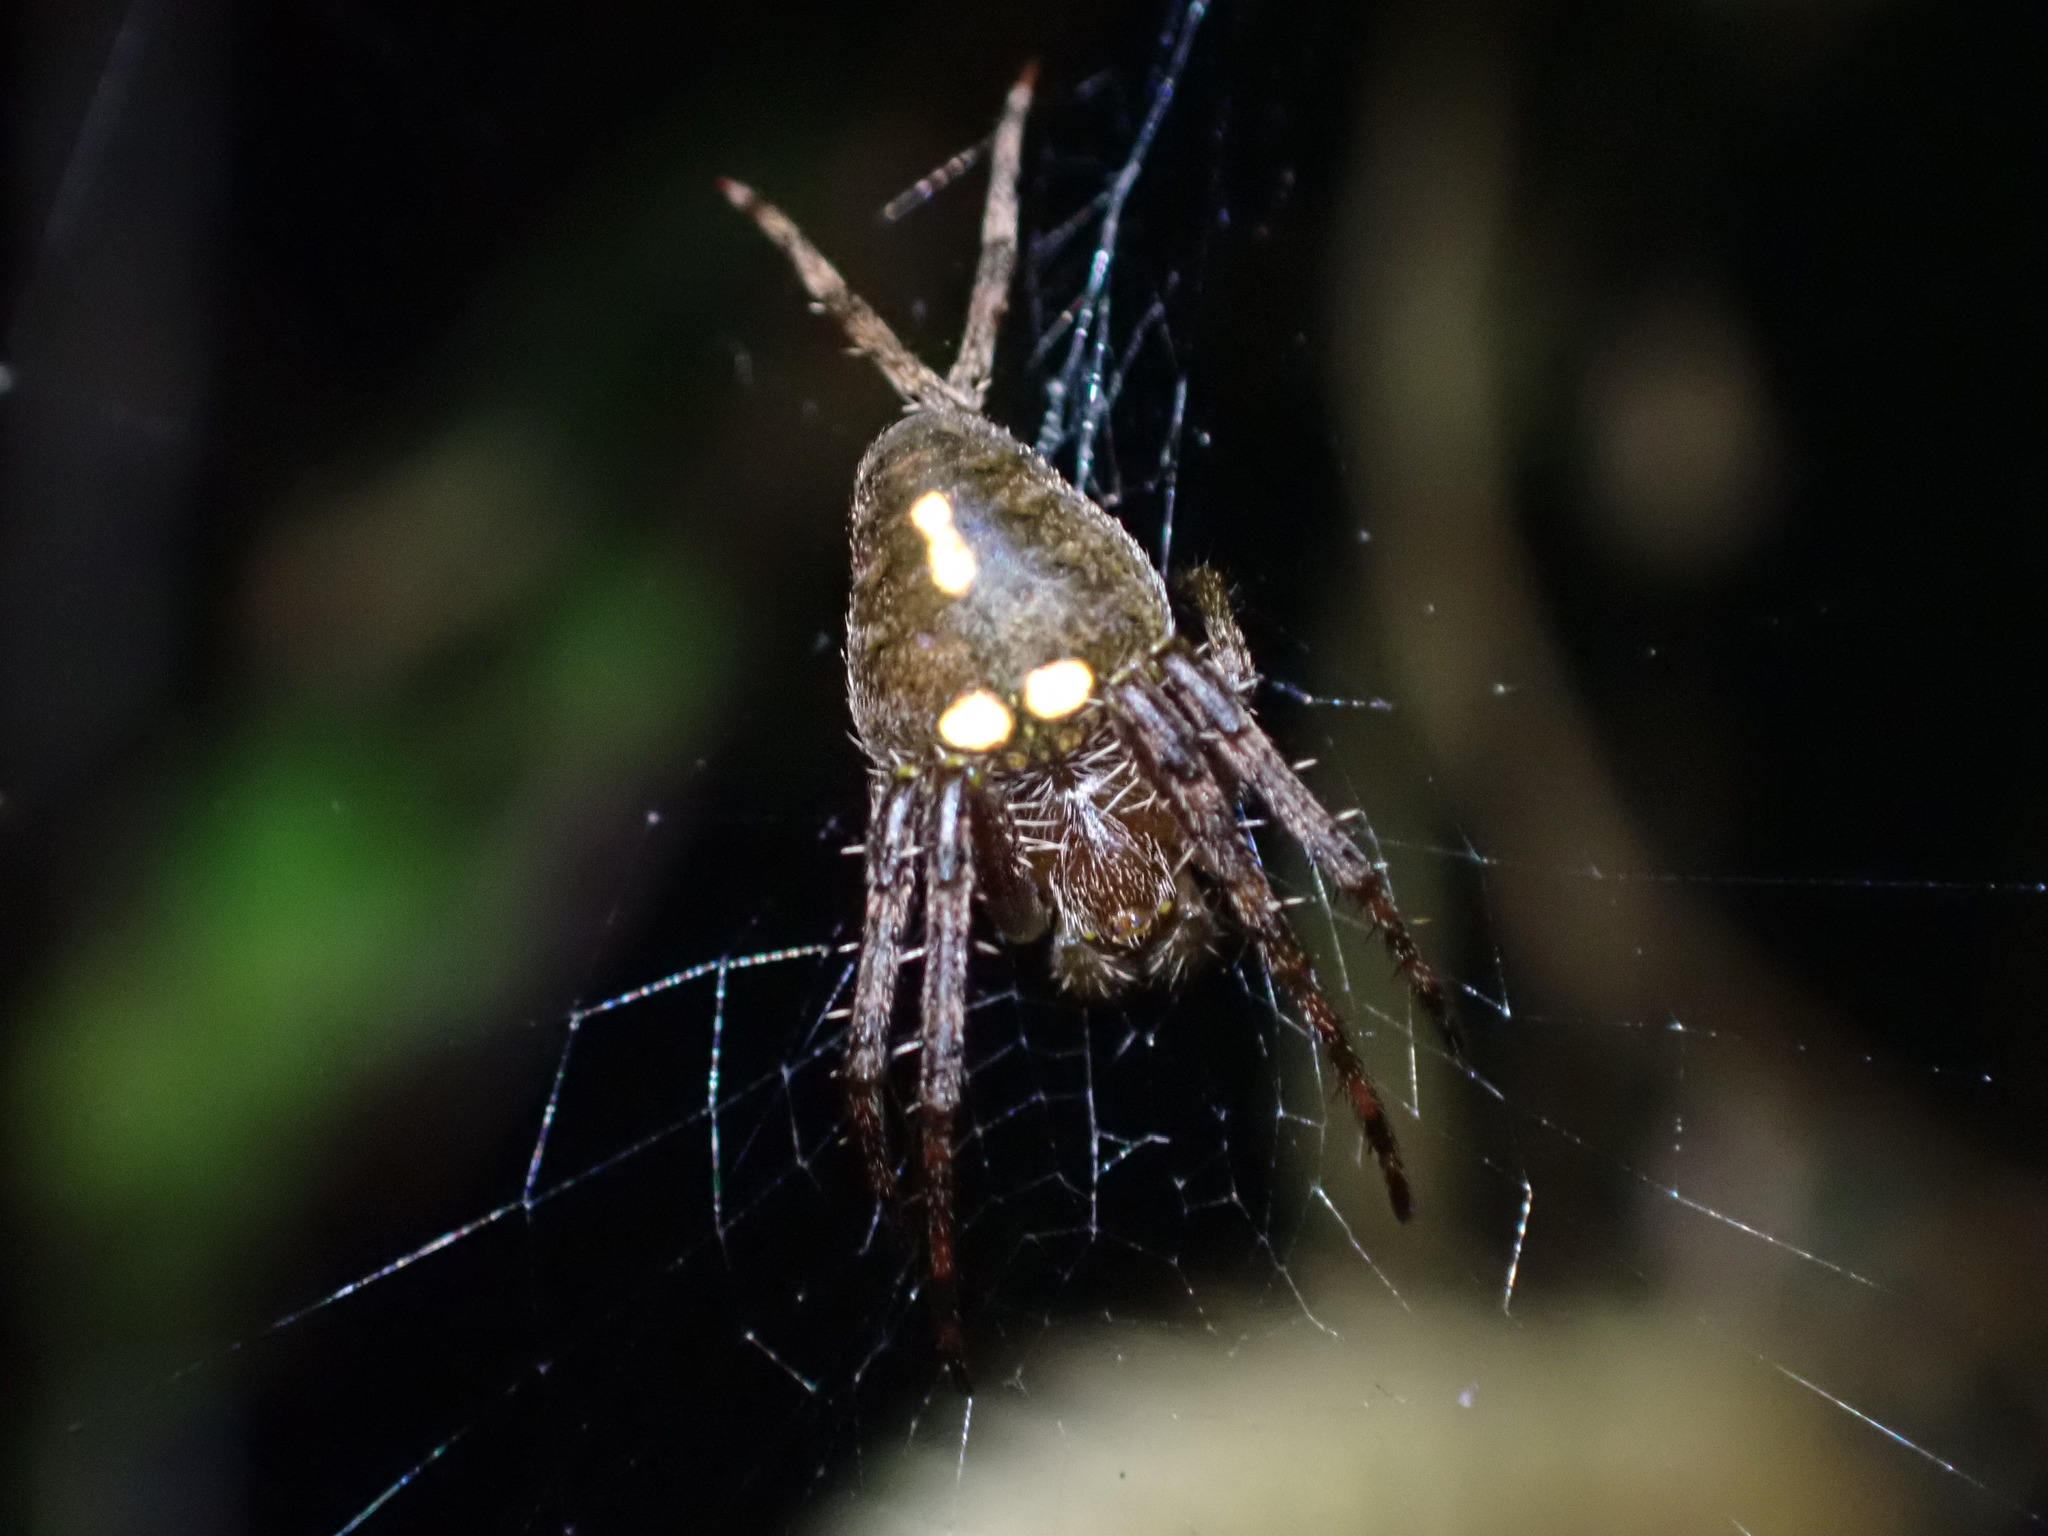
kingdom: Animalia
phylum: Arthropoda
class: Arachnida
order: Araneae
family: Araneidae
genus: Zealaranea
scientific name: Zealaranea trinotata
